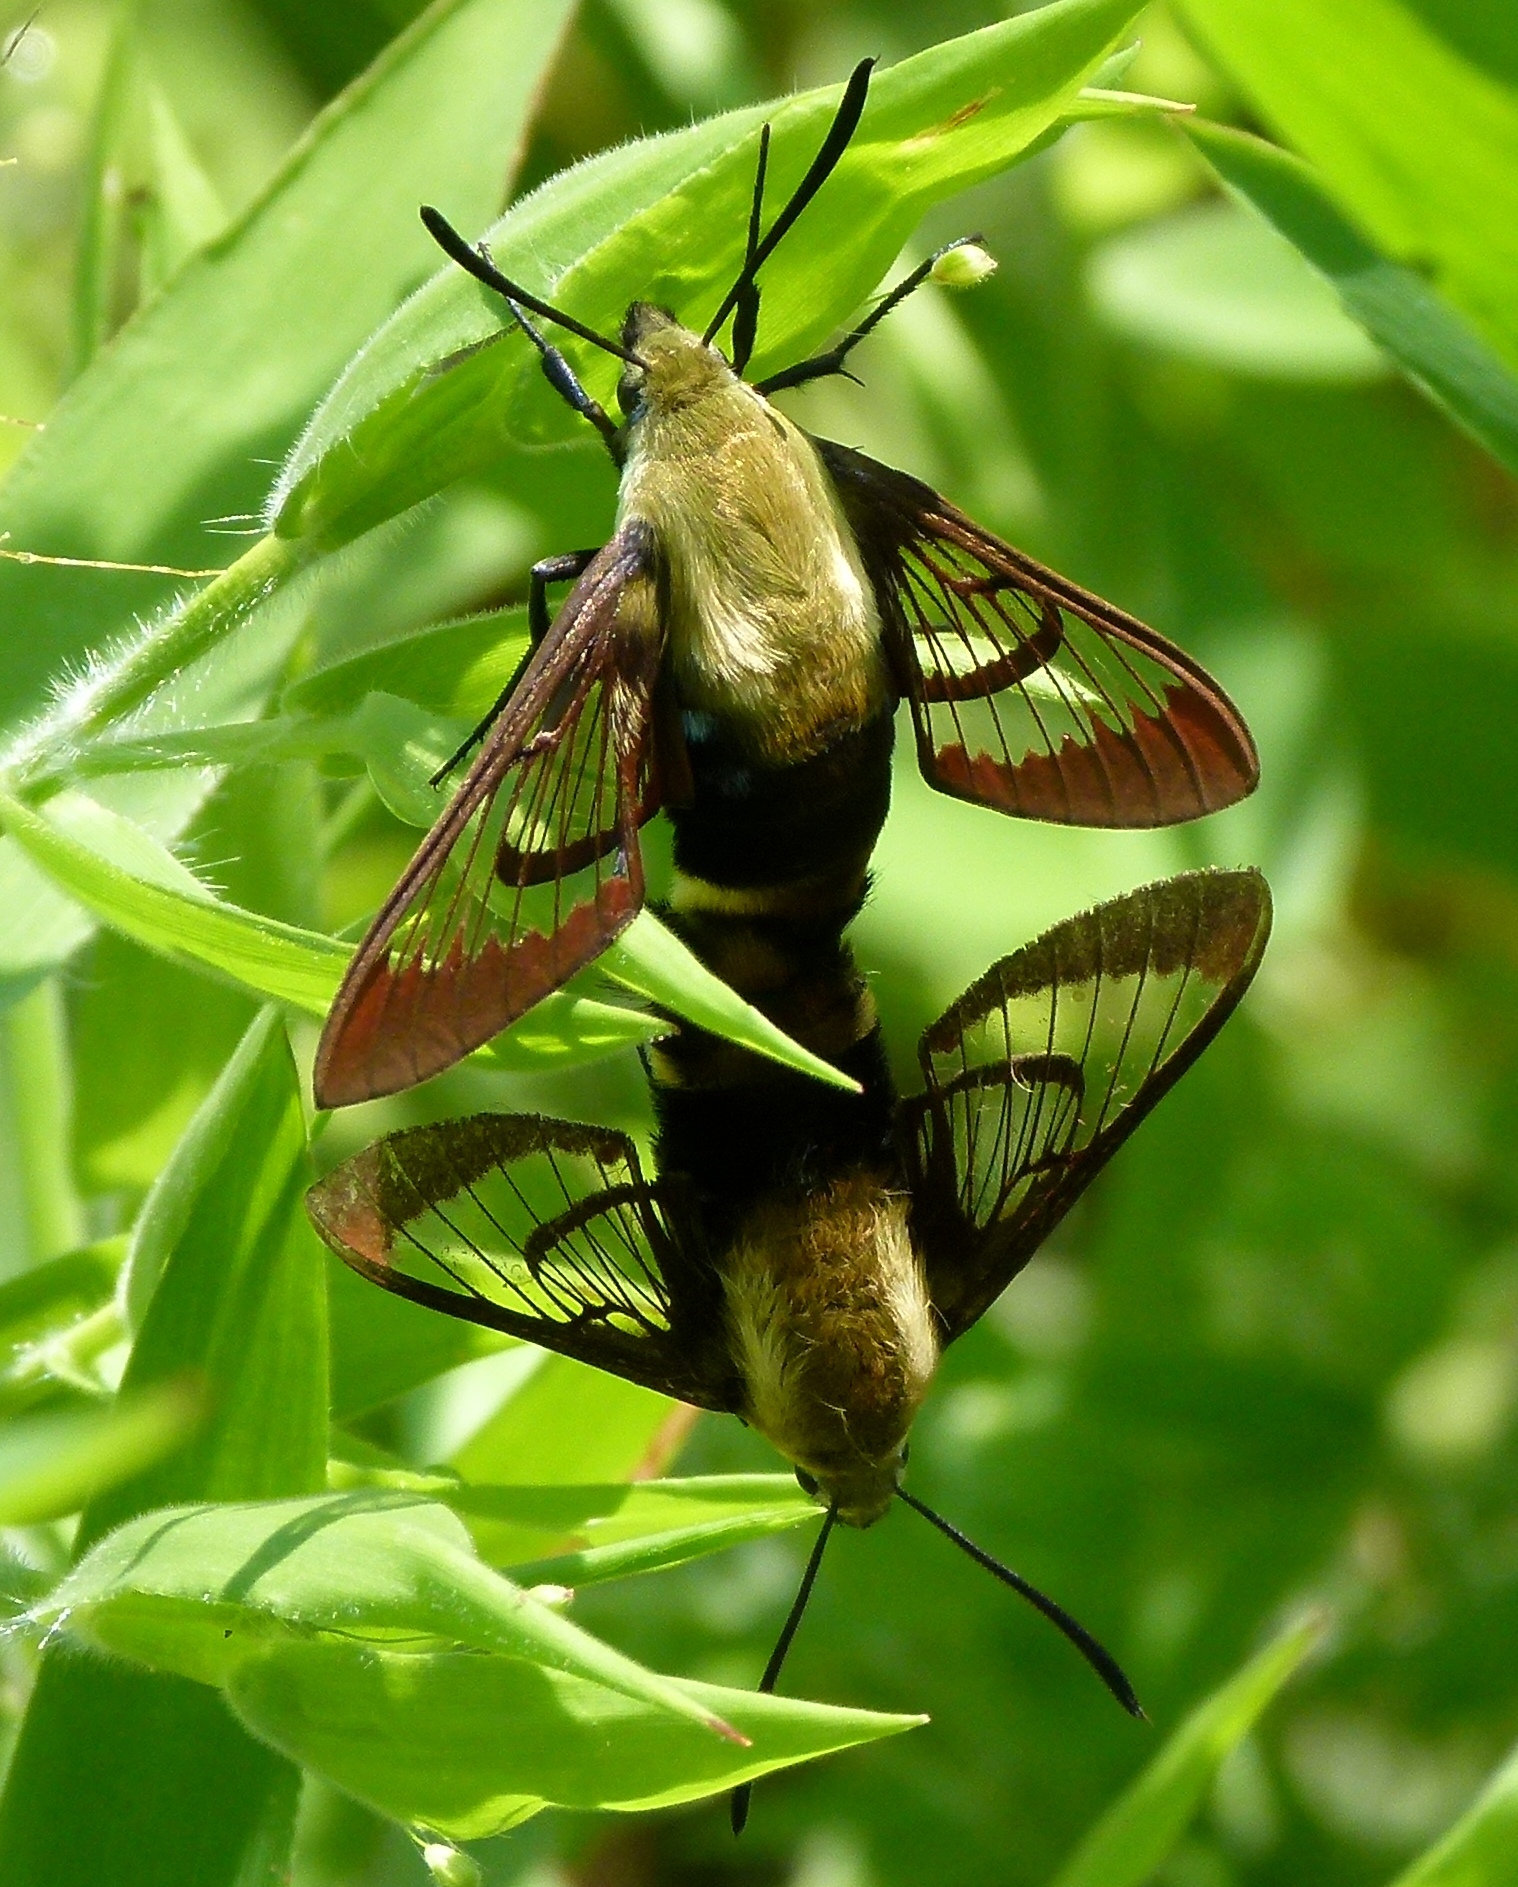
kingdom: Animalia
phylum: Arthropoda
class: Insecta
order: Lepidoptera
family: Sphingidae
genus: Hemaris
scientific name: Hemaris diffinis
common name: Bumblebee moth
